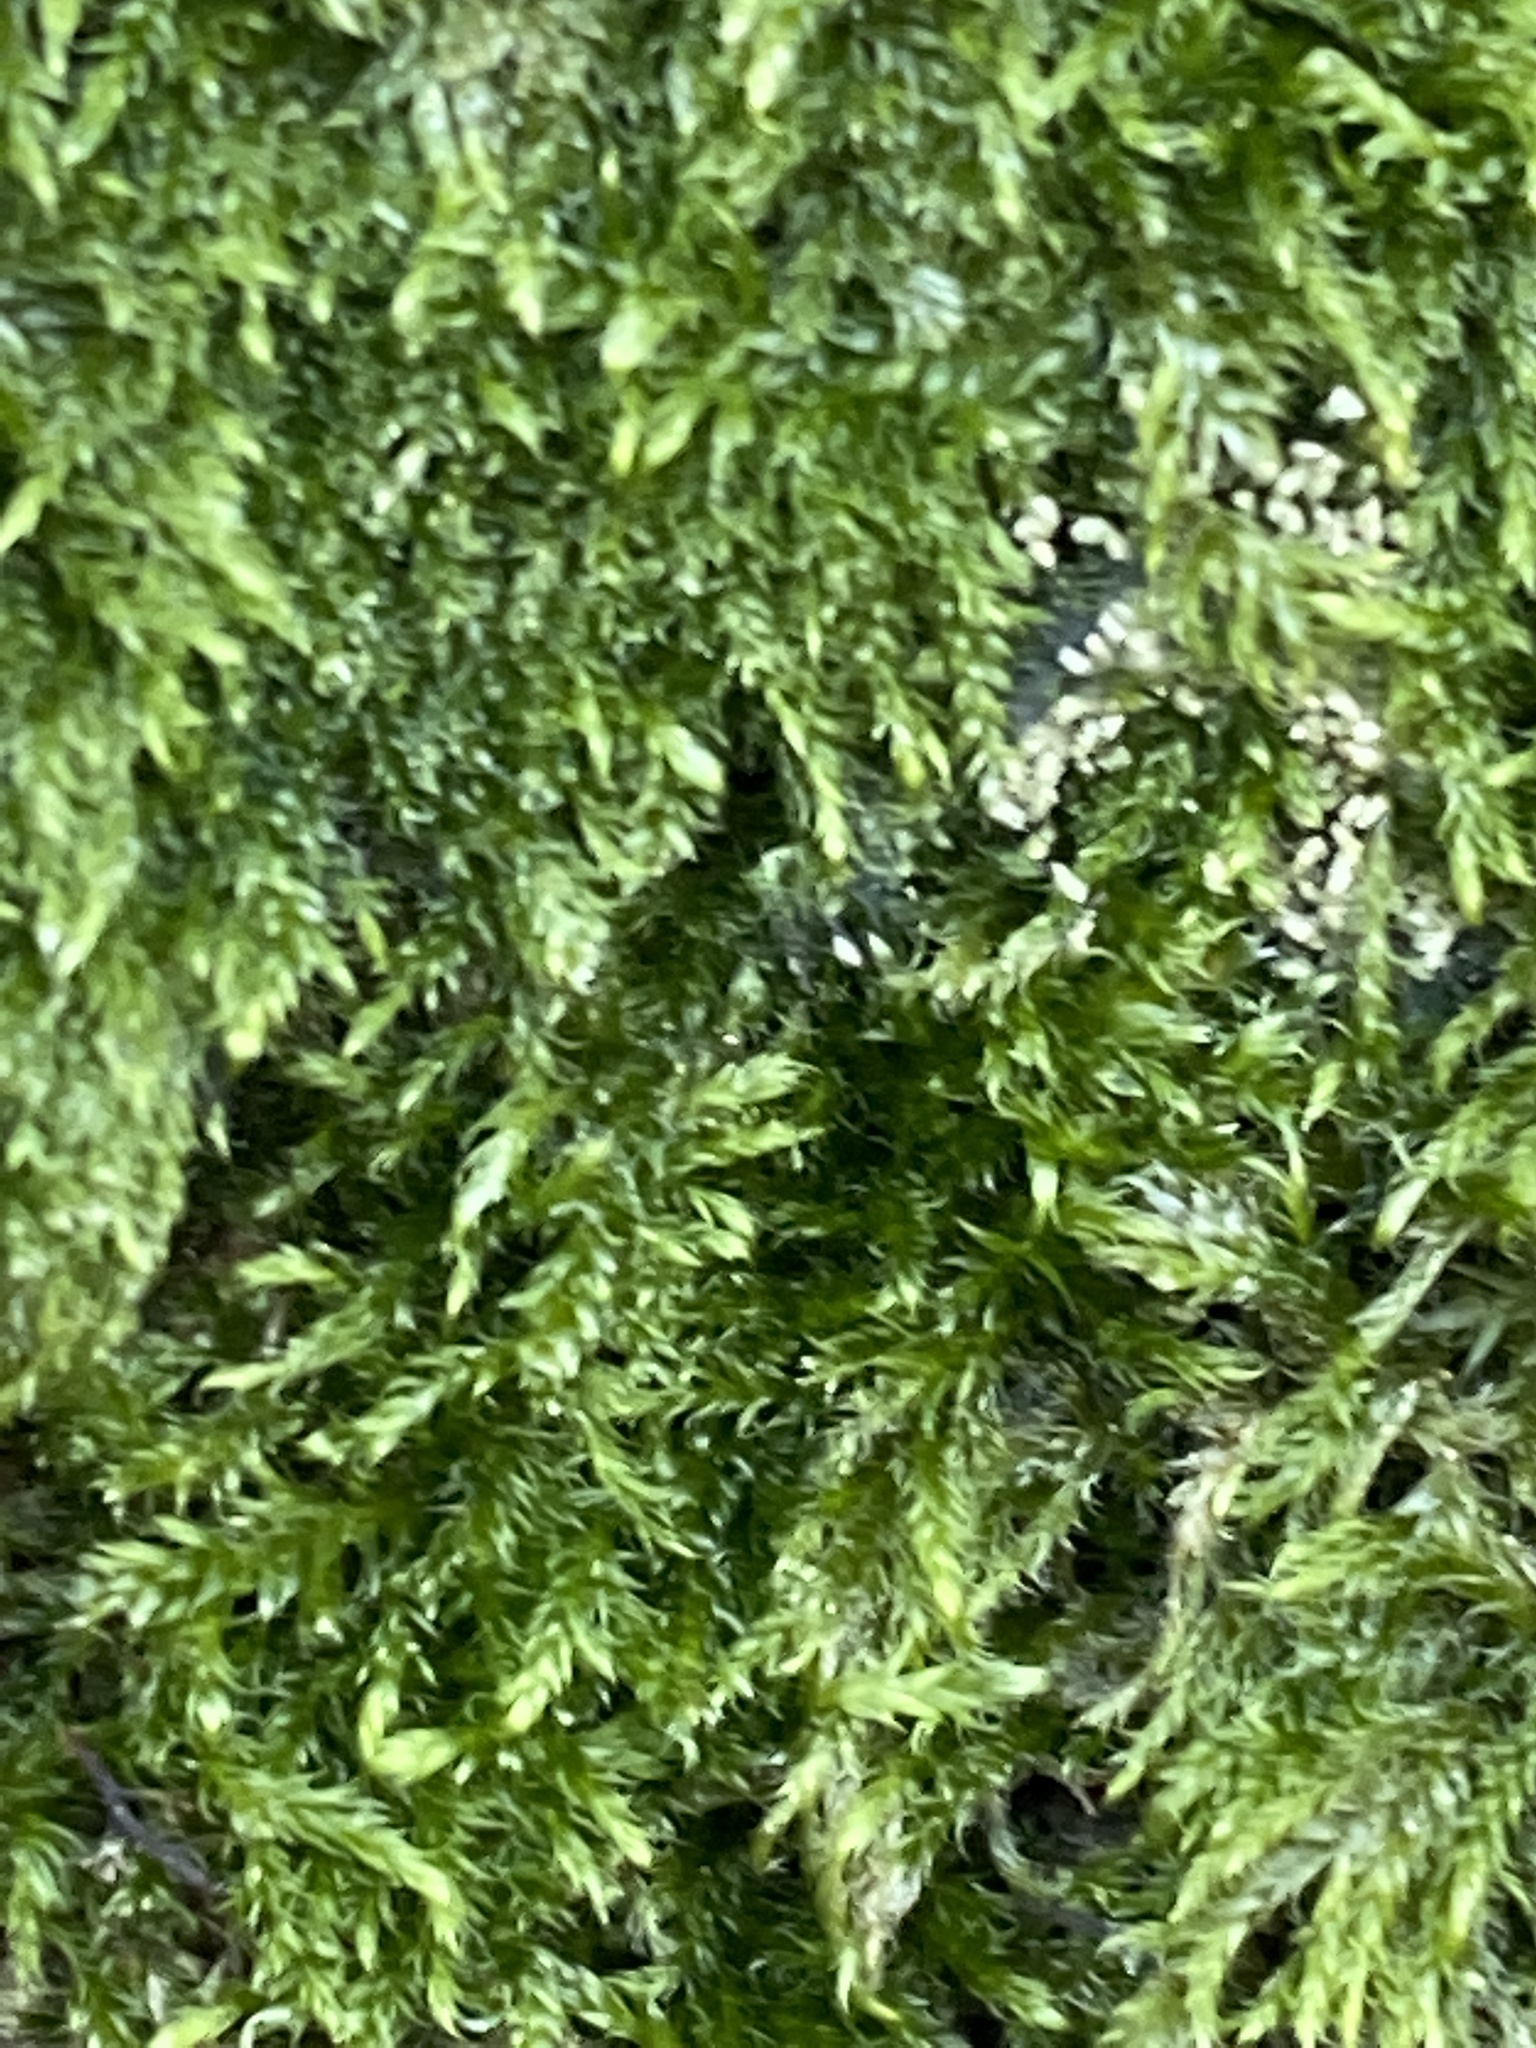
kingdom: Plantae
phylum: Bryophyta
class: Bryopsida
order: Hypnales
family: Hypnaceae
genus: Hypnum
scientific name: Hypnum cupressiforme
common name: Cypress-leaved plait-moss
